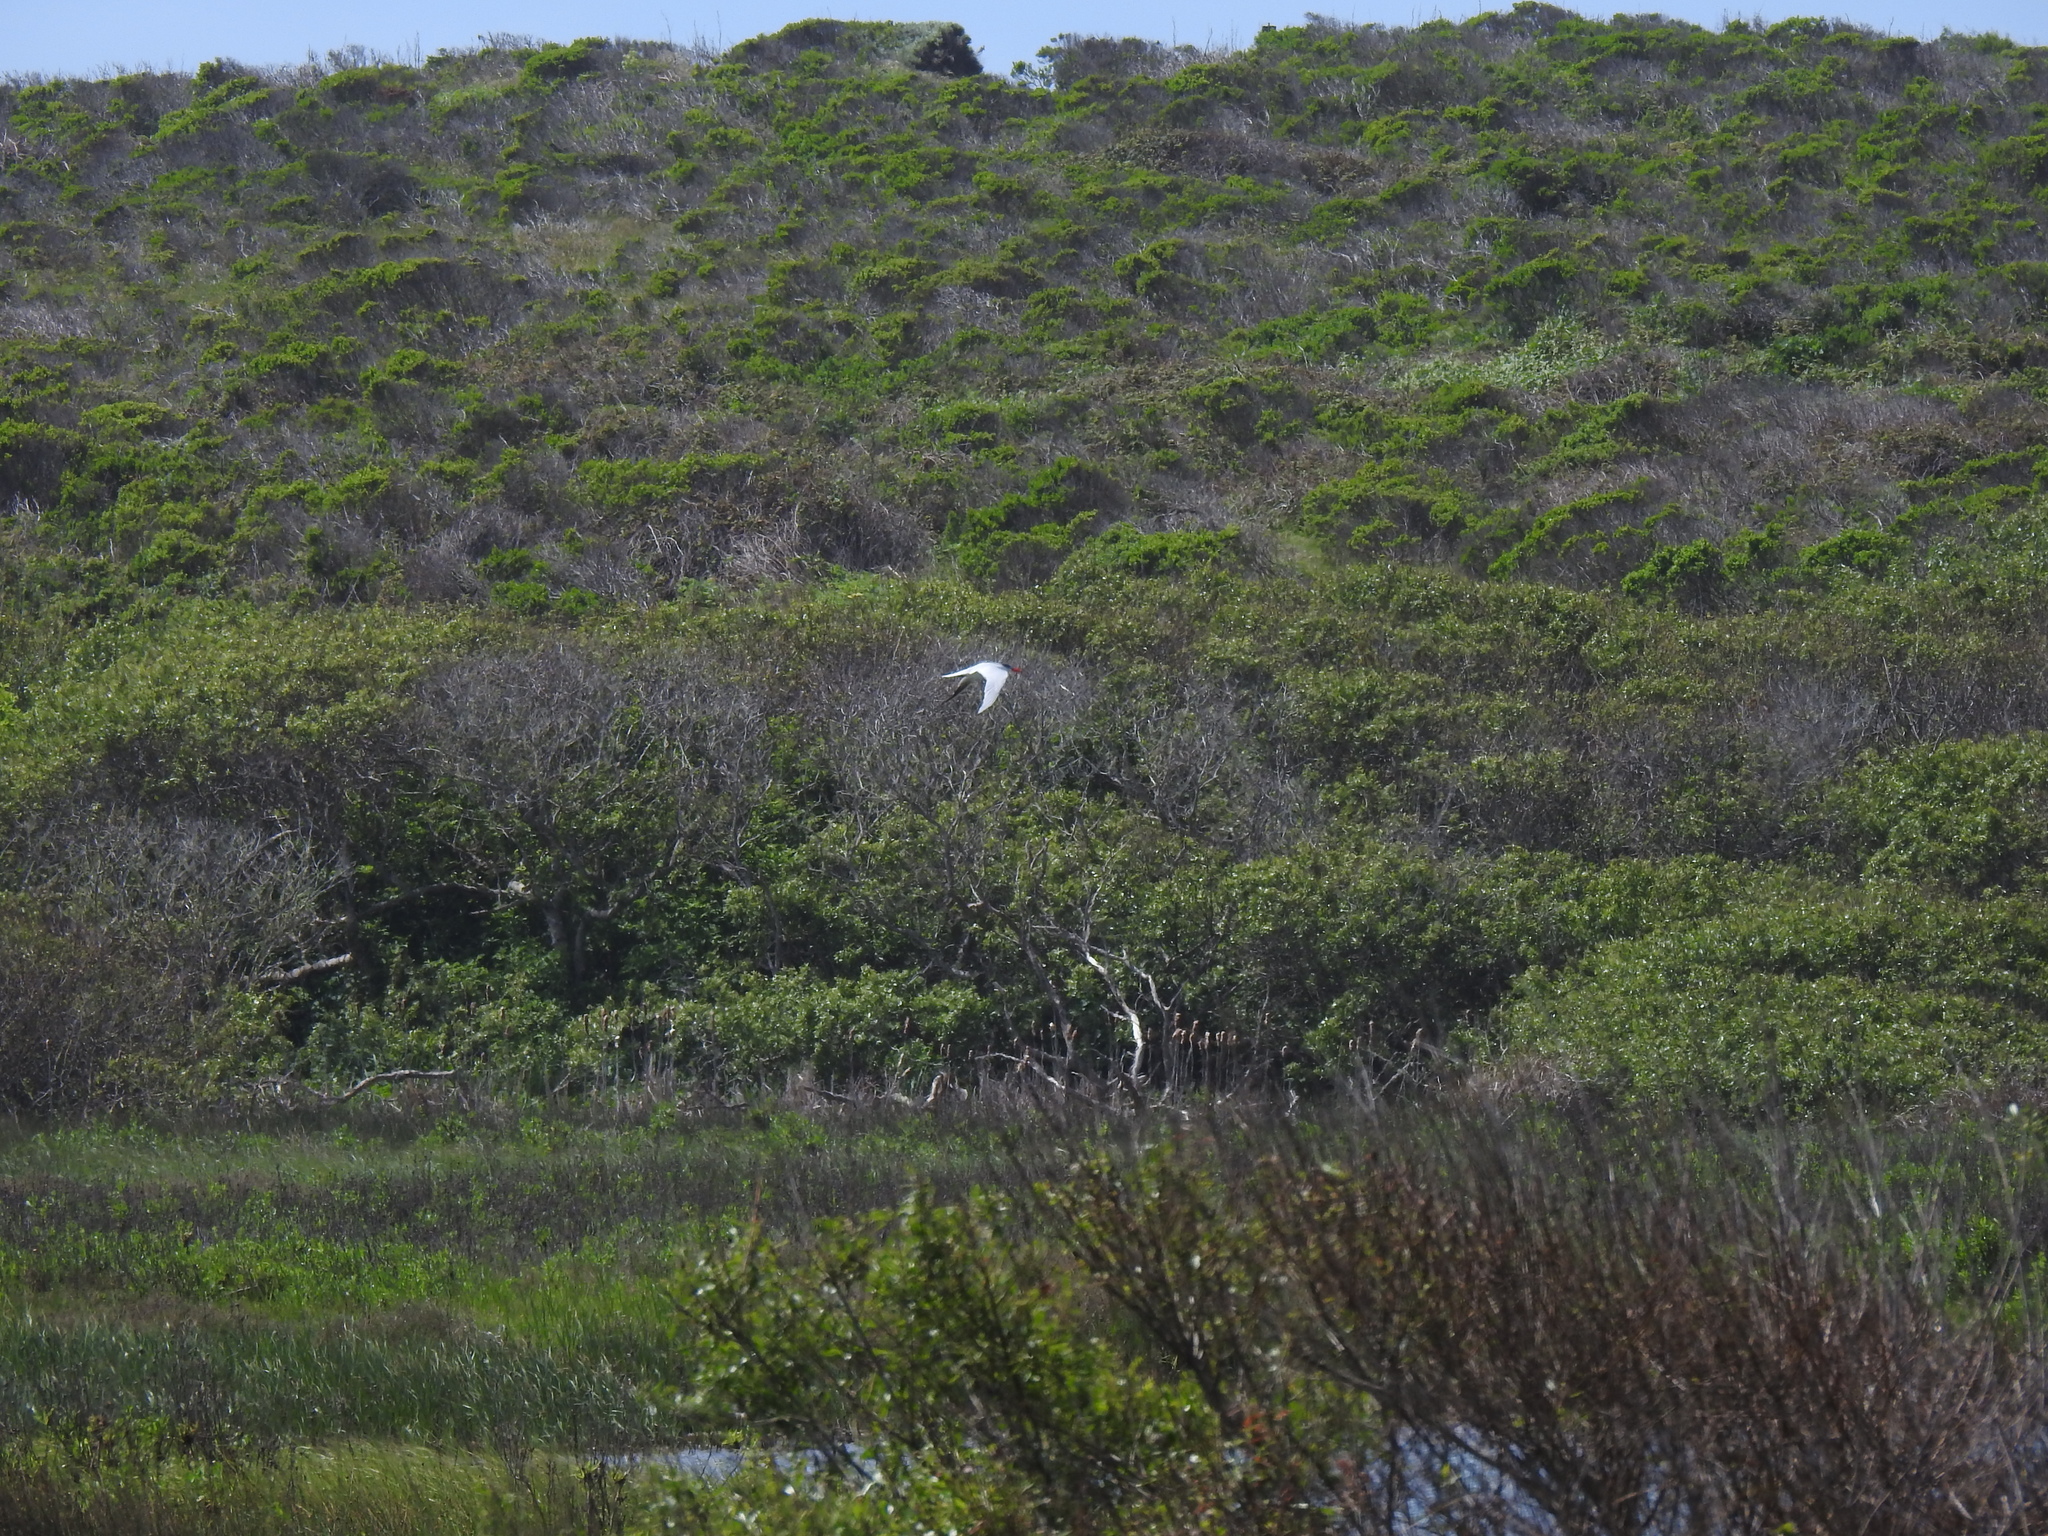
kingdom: Animalia
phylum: Chordata
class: Aves
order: Charadriiformes
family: Laridae
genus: Hydroprogne
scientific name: Hydroprogne caspia
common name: Caspian tern
